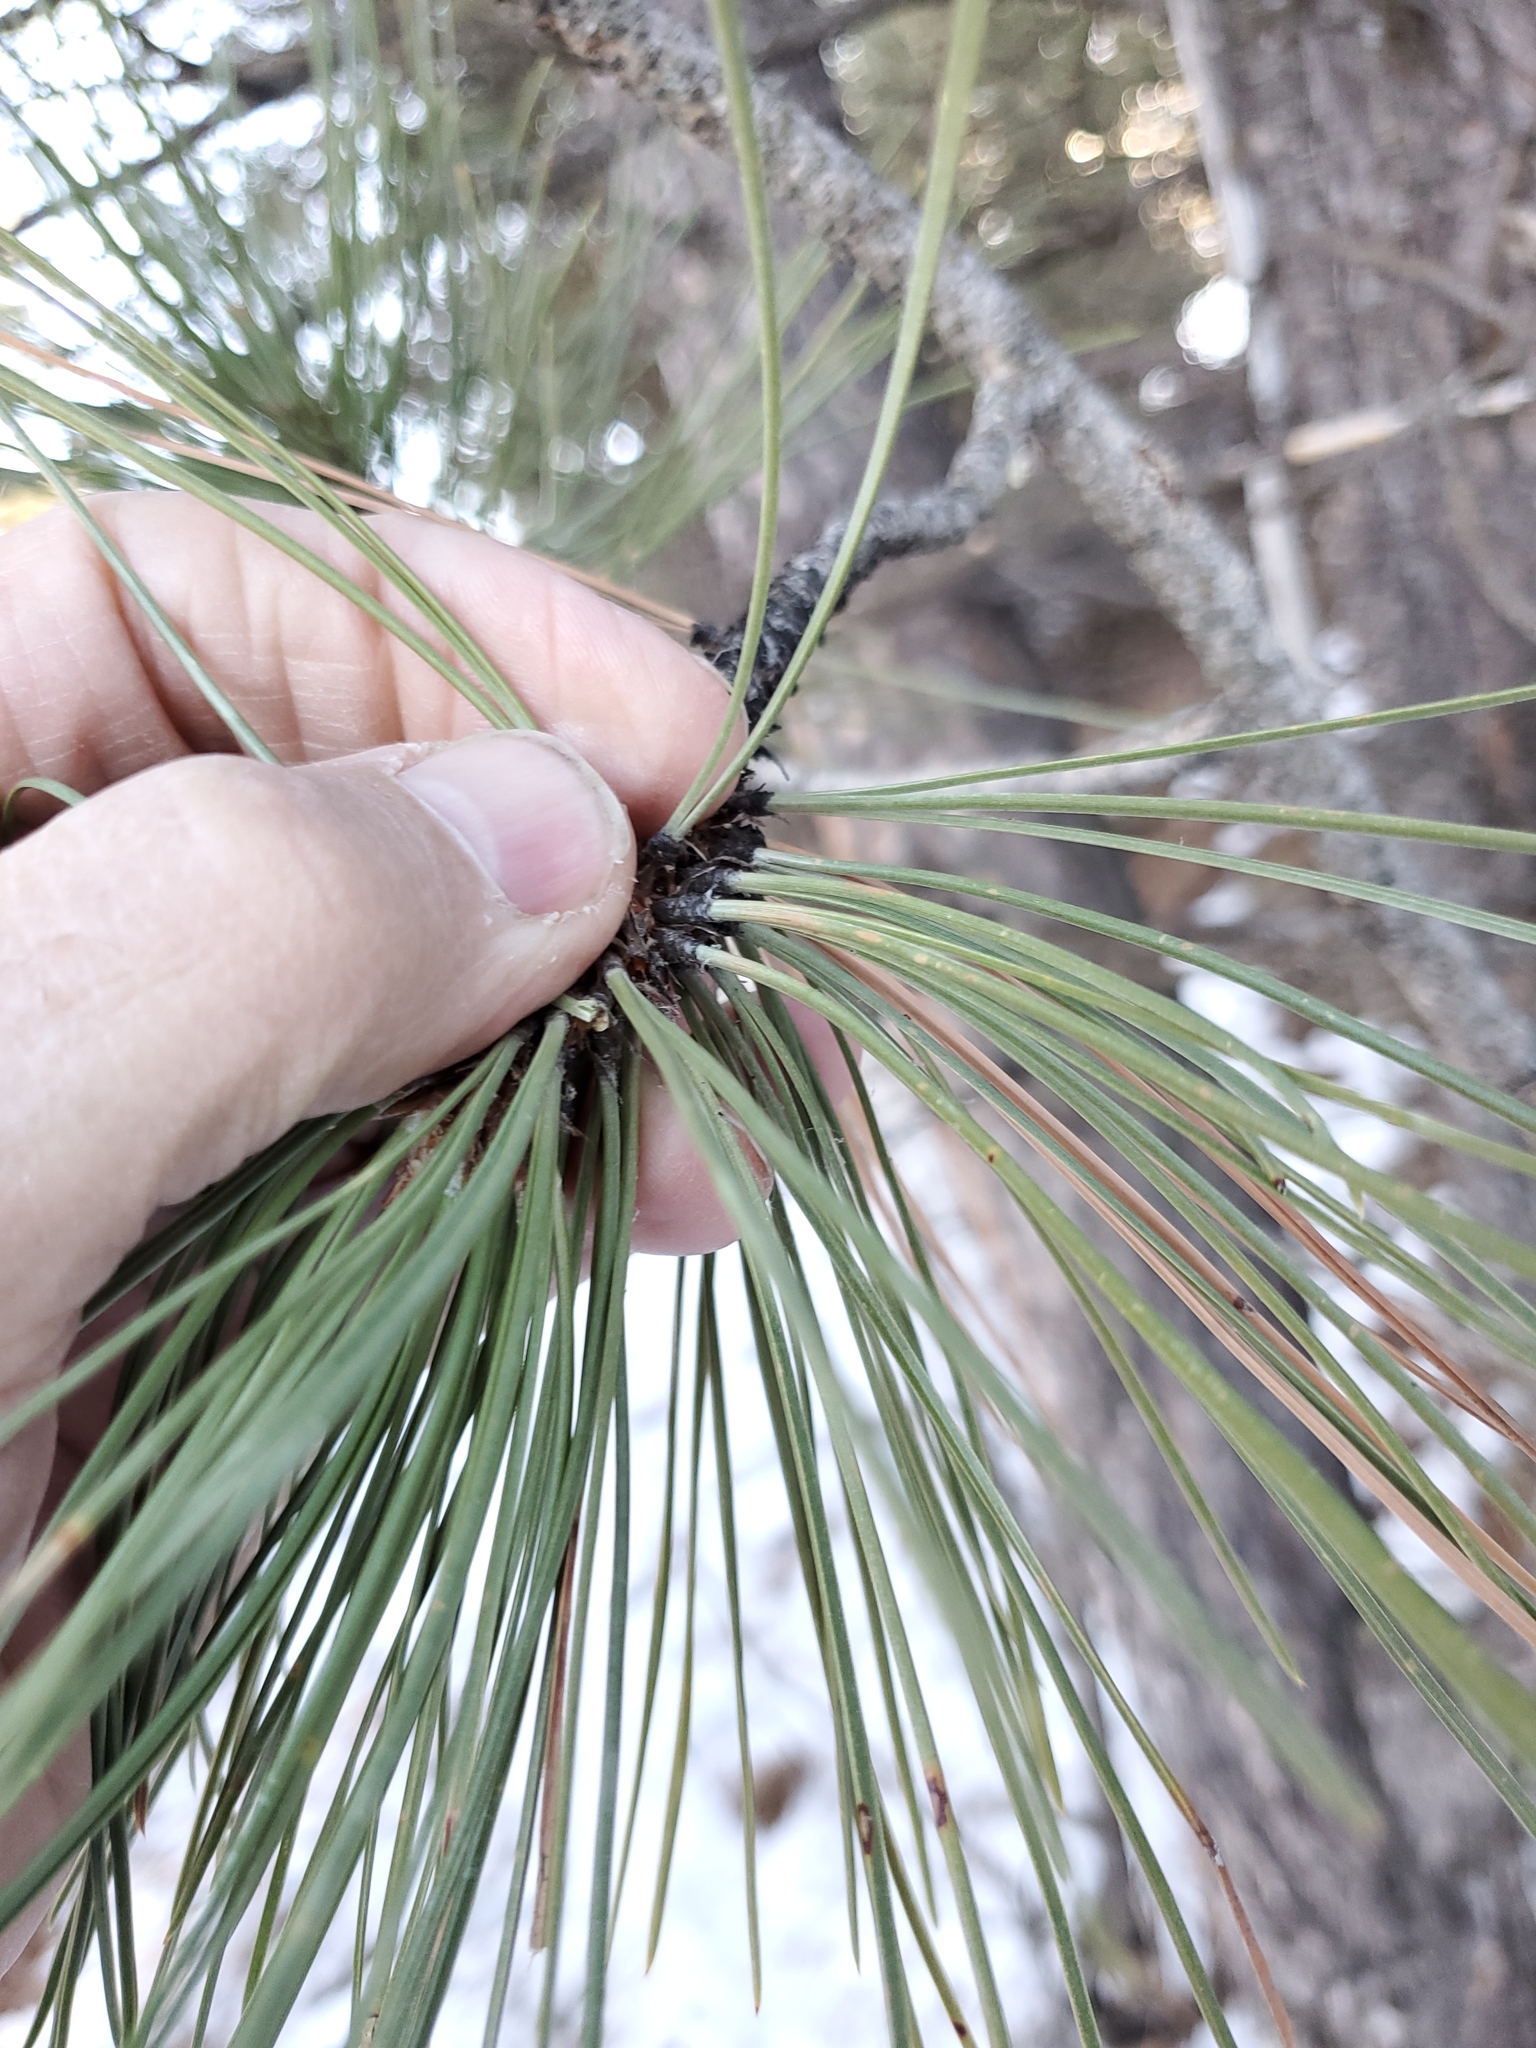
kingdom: Plantae
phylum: Tracheophyta
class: Pinopsida
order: Pinales
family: Pinaceae
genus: Pinus
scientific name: Pinus ponderosa
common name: Western yellow-pine
